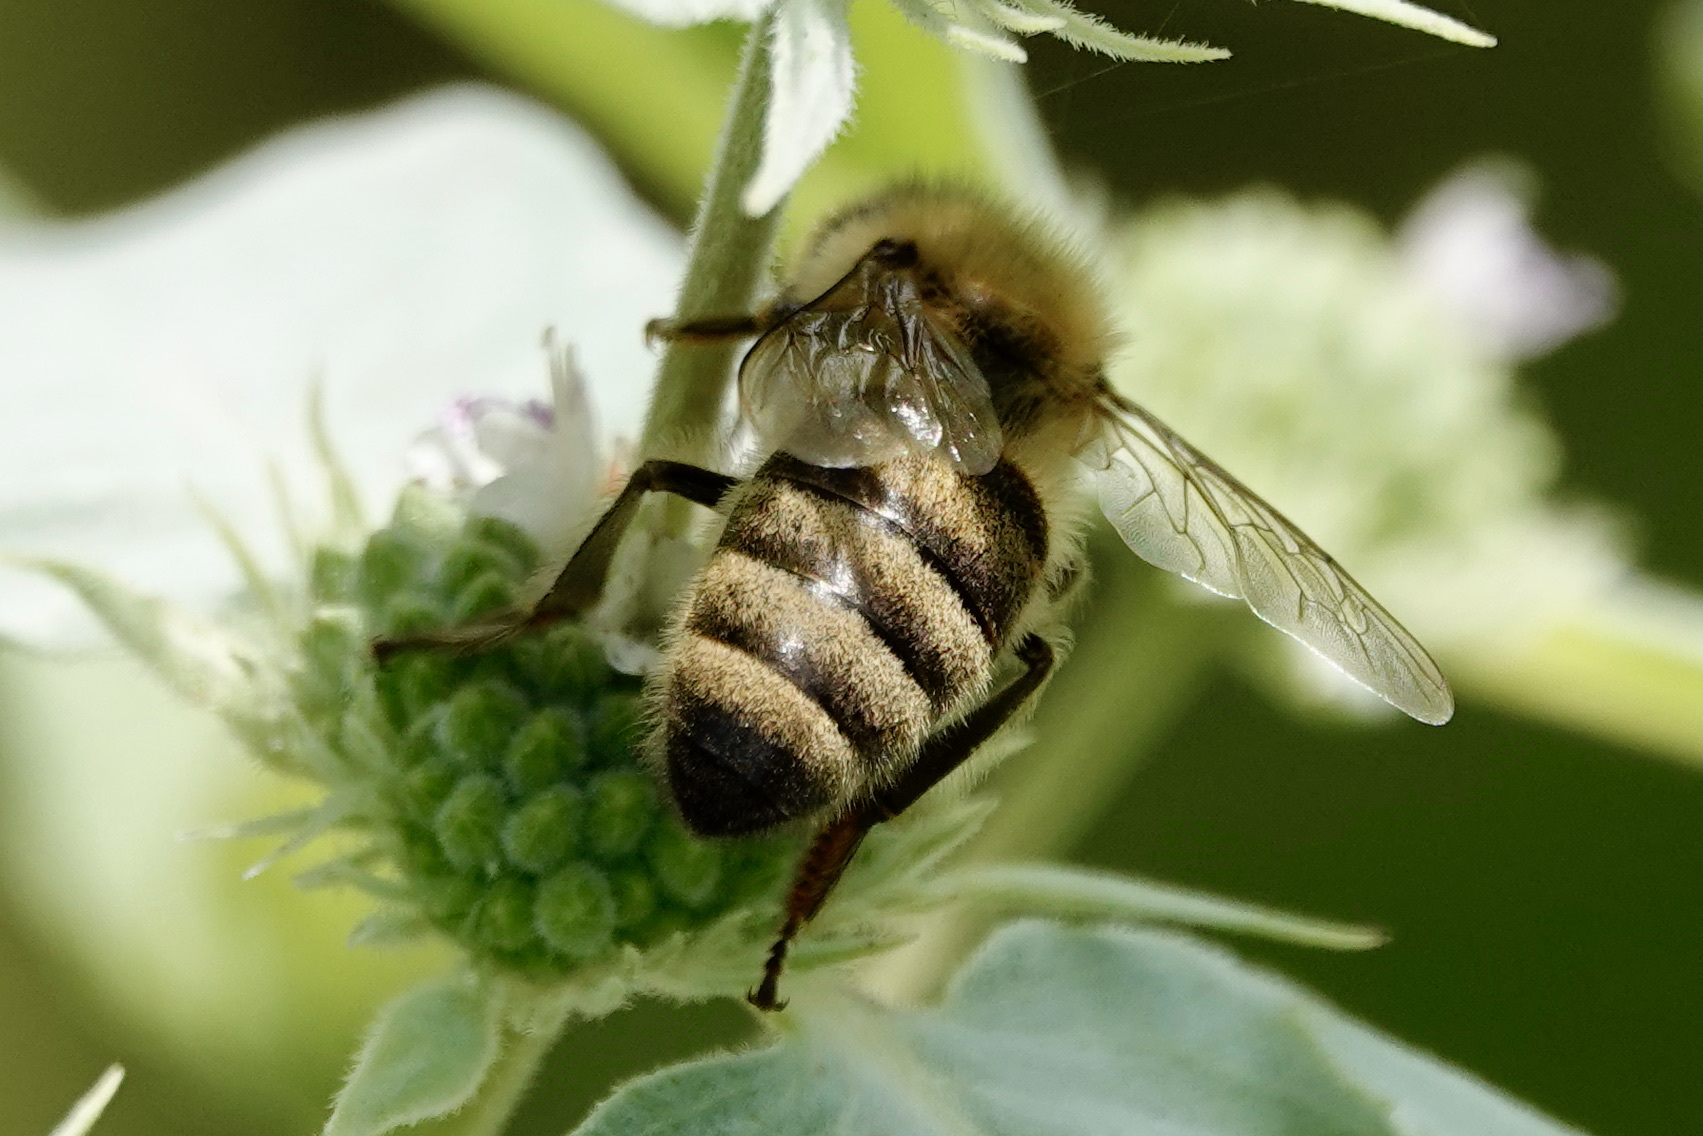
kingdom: Animalia
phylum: Arthropoda
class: Insecta
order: Hymenoptera
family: Apidae
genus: Apis
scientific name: Apis mellifera
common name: Honey bee
